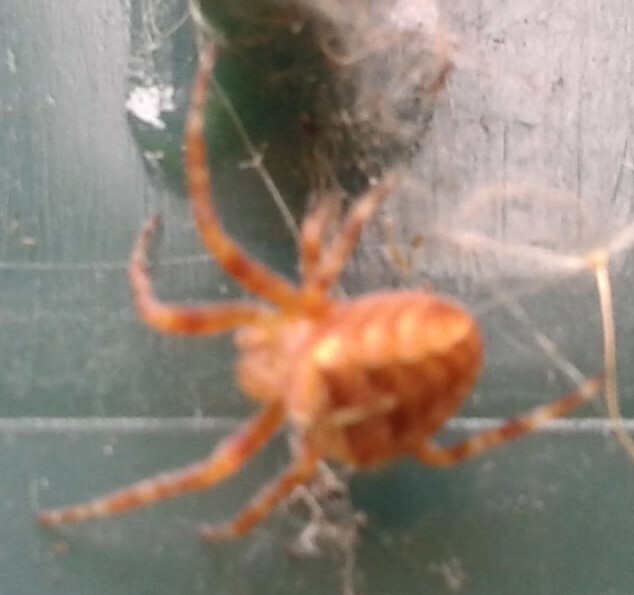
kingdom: Animalia
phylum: Arthropoda
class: Arachnida
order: Araneae
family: Araneidae
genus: Araneus
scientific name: Araneus diadematus
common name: Cross orbweaver
